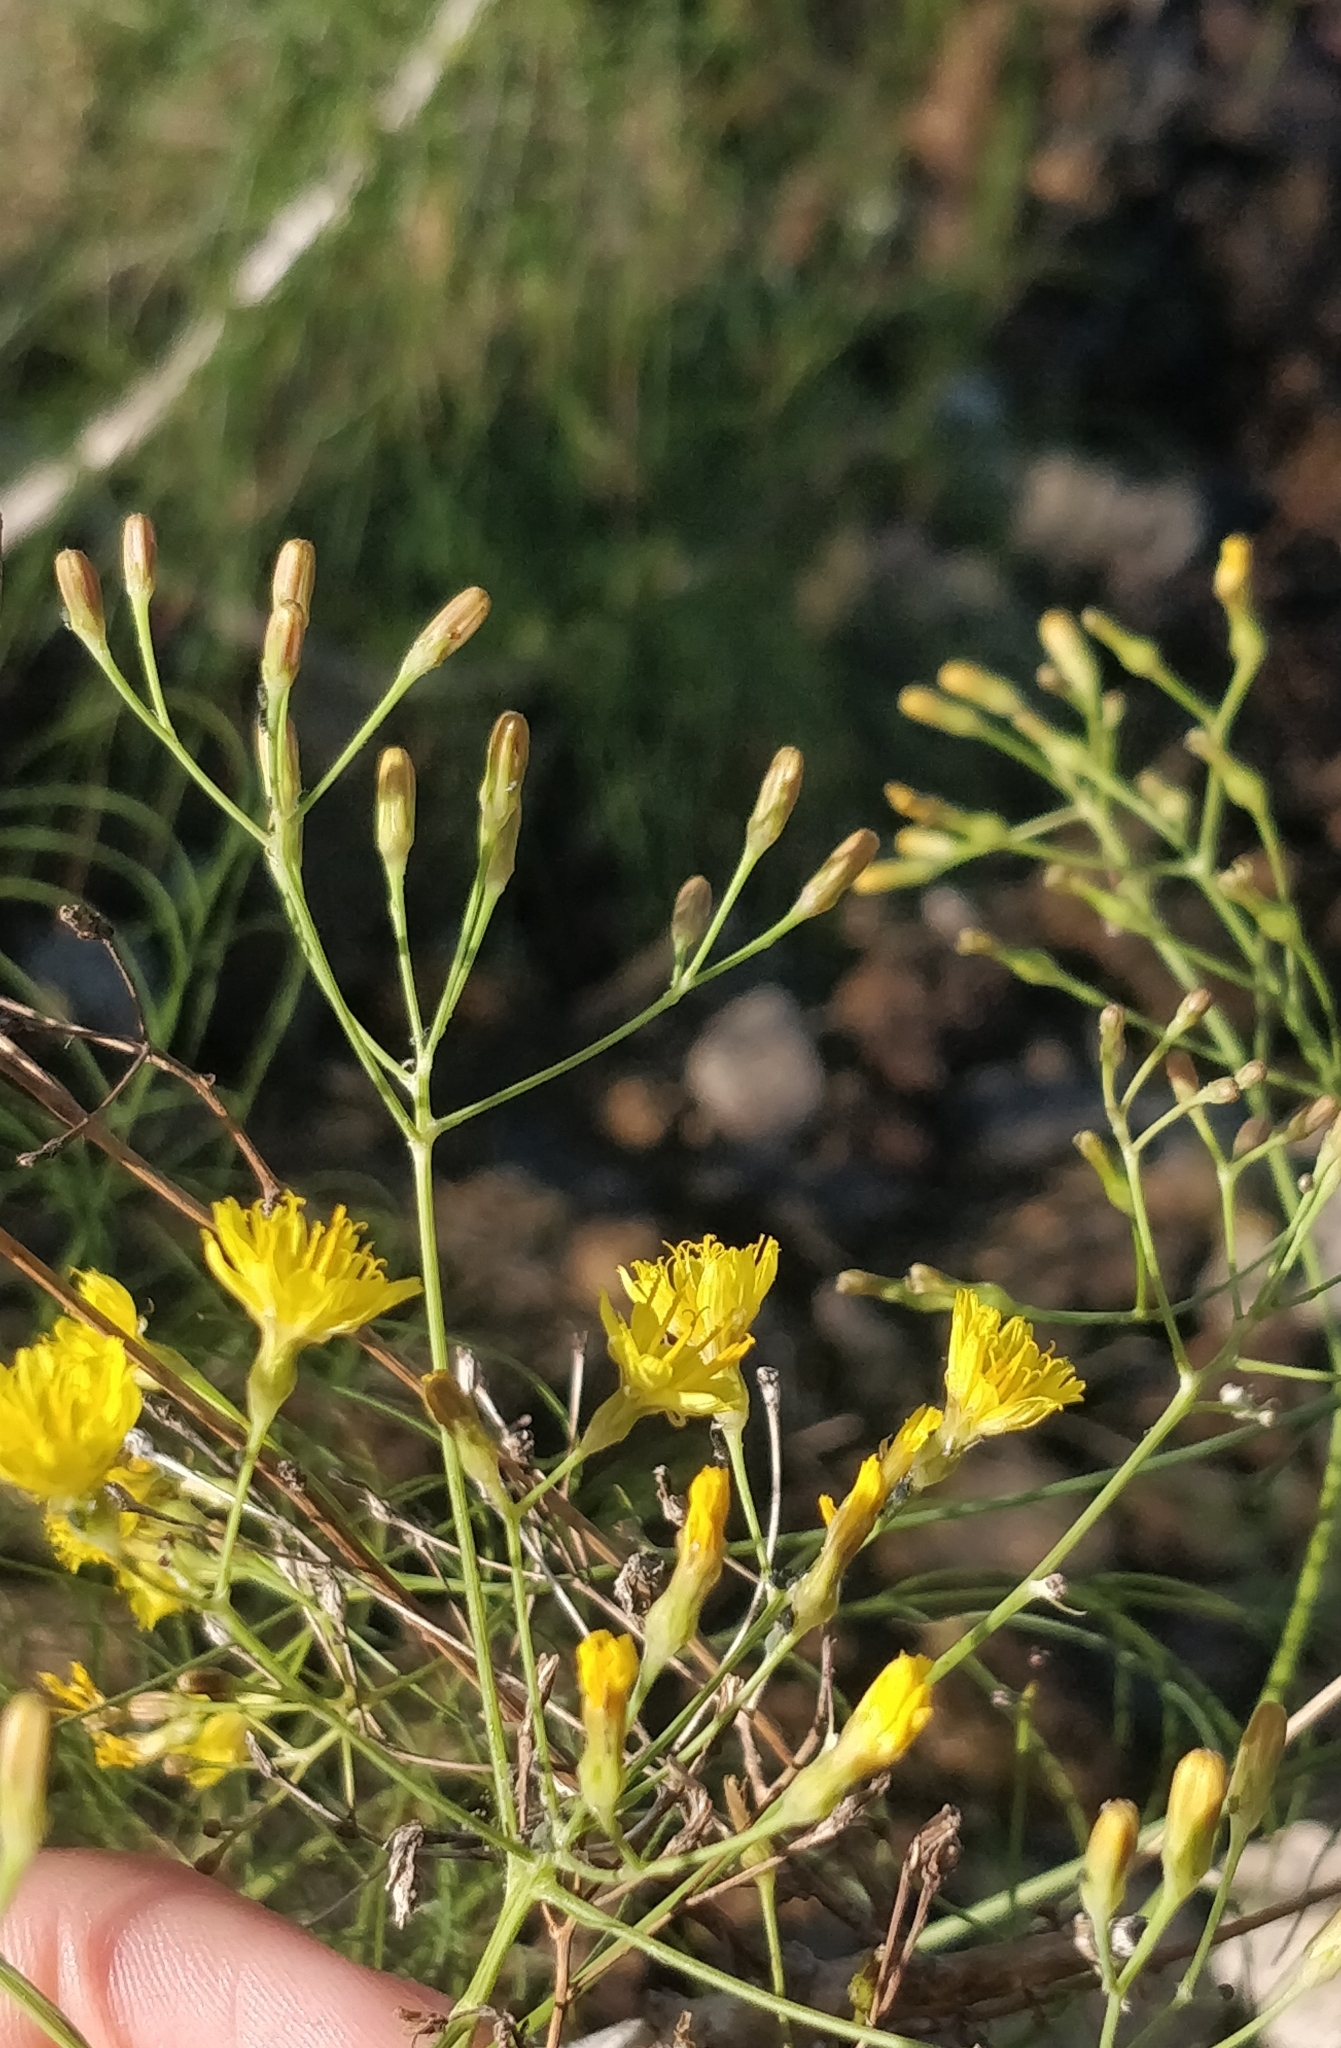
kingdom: Plantae
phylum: Tracheophyta
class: Magnoliopsida
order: Asterales
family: Asteraceae
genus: Sonchus
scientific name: Sonchus microcarpus
